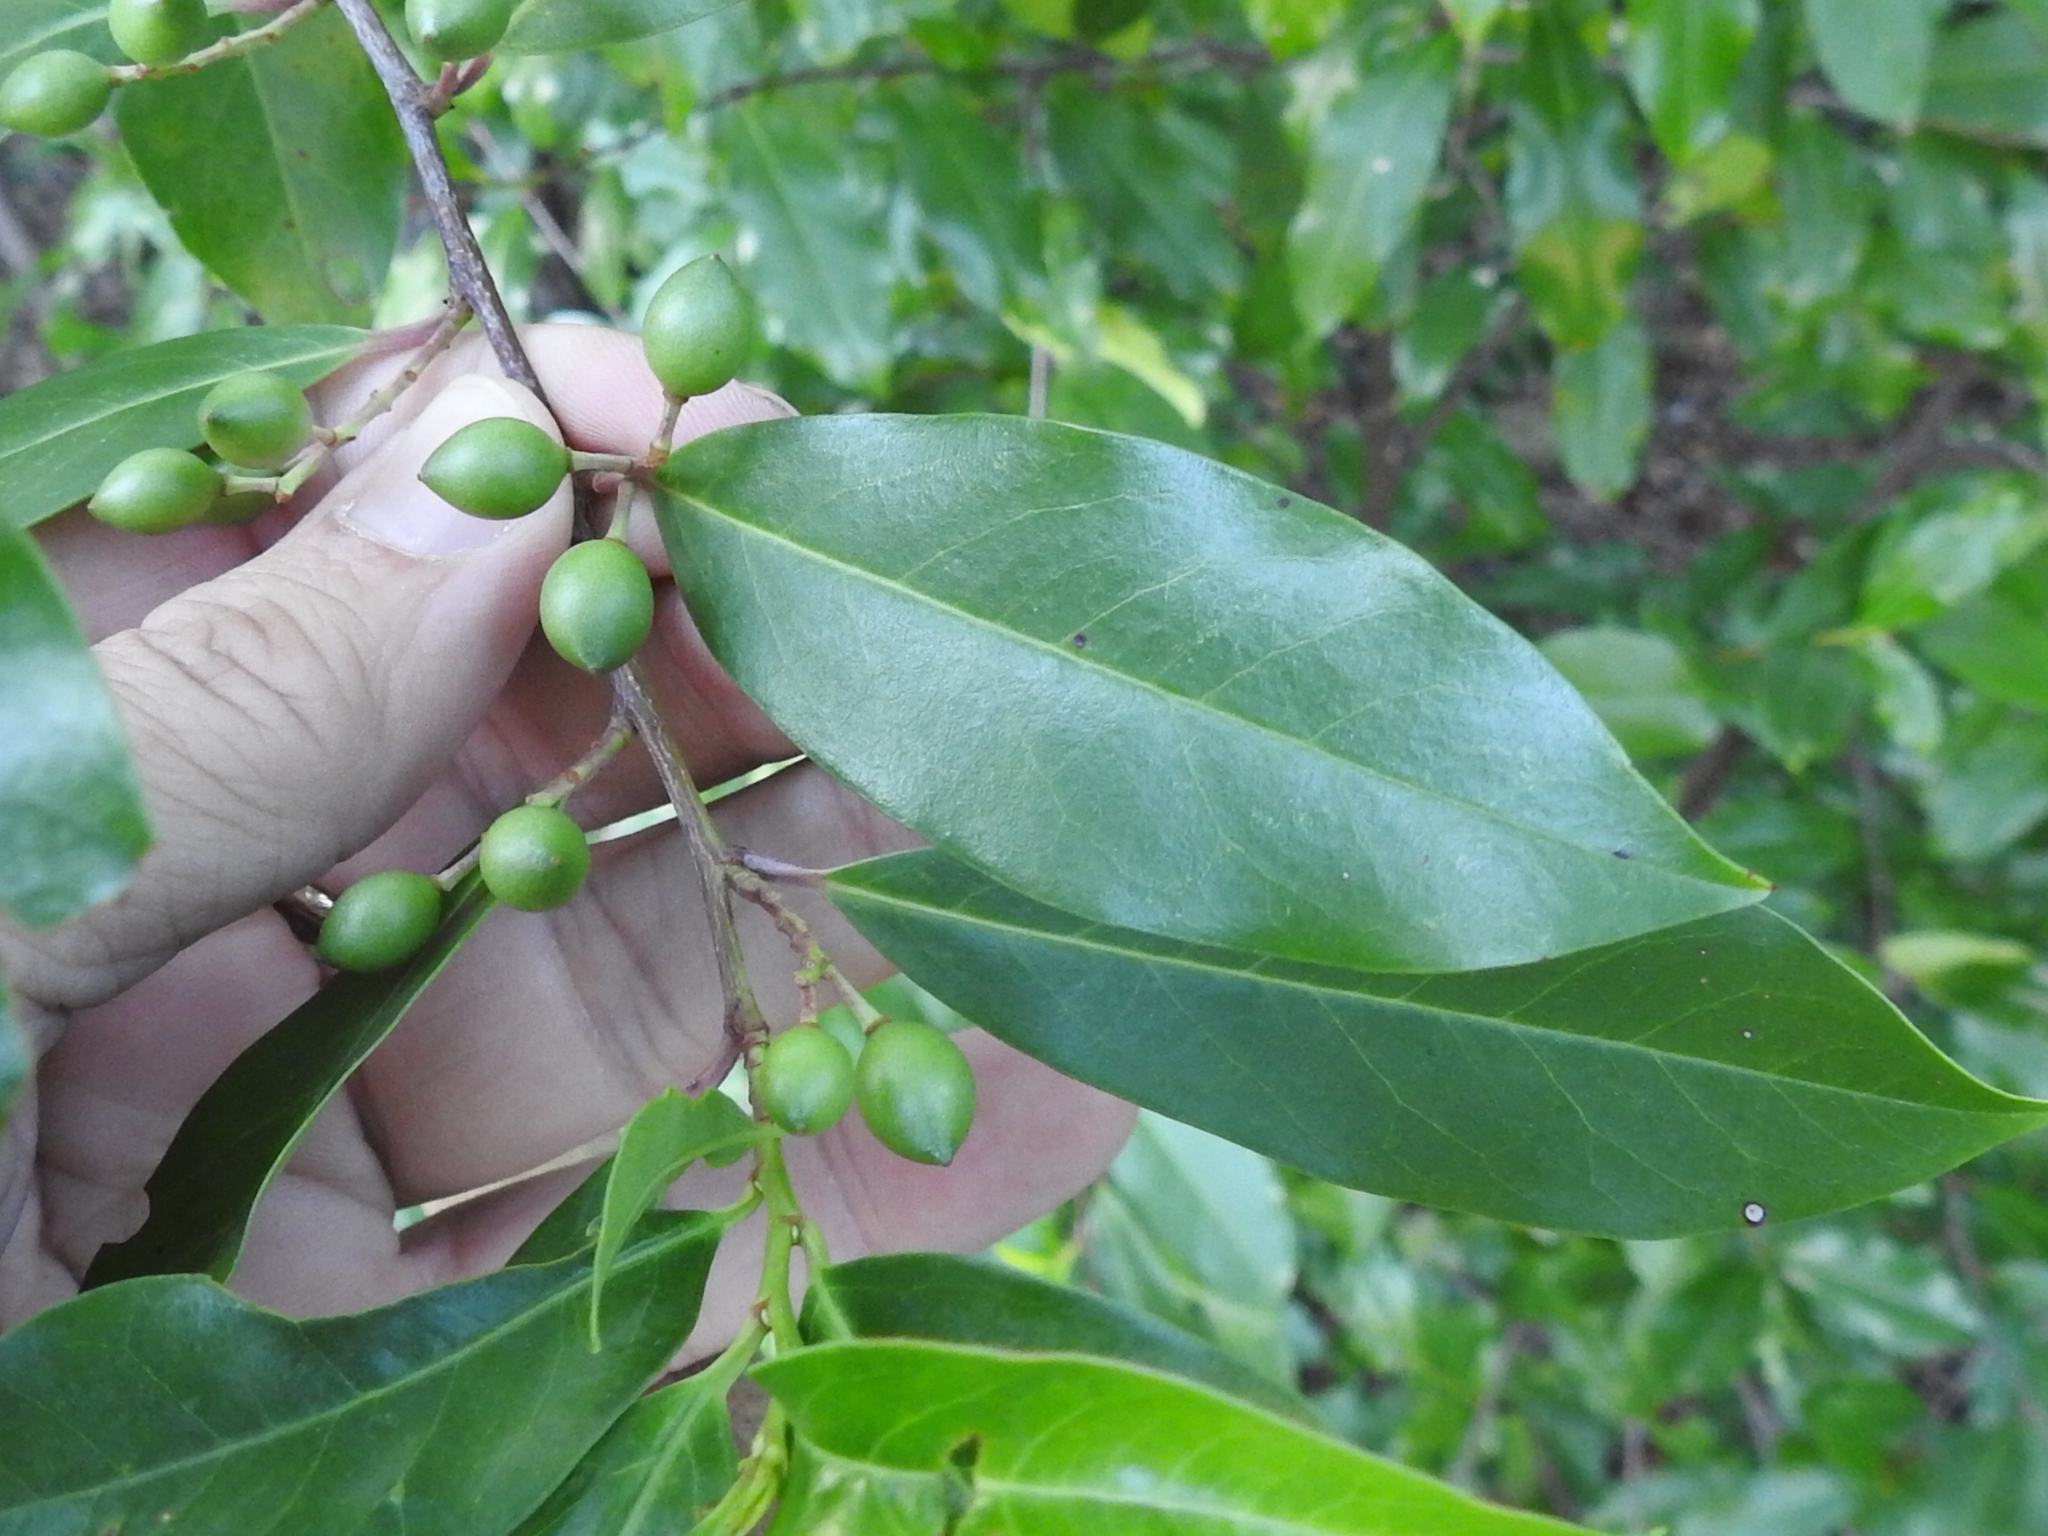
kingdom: Plantae
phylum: Tracheophyta
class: Magnoliopsida
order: Rosales
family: Rosaceae
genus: Prunus
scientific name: Prunus caroliniana
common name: Carolina laurel cherry
